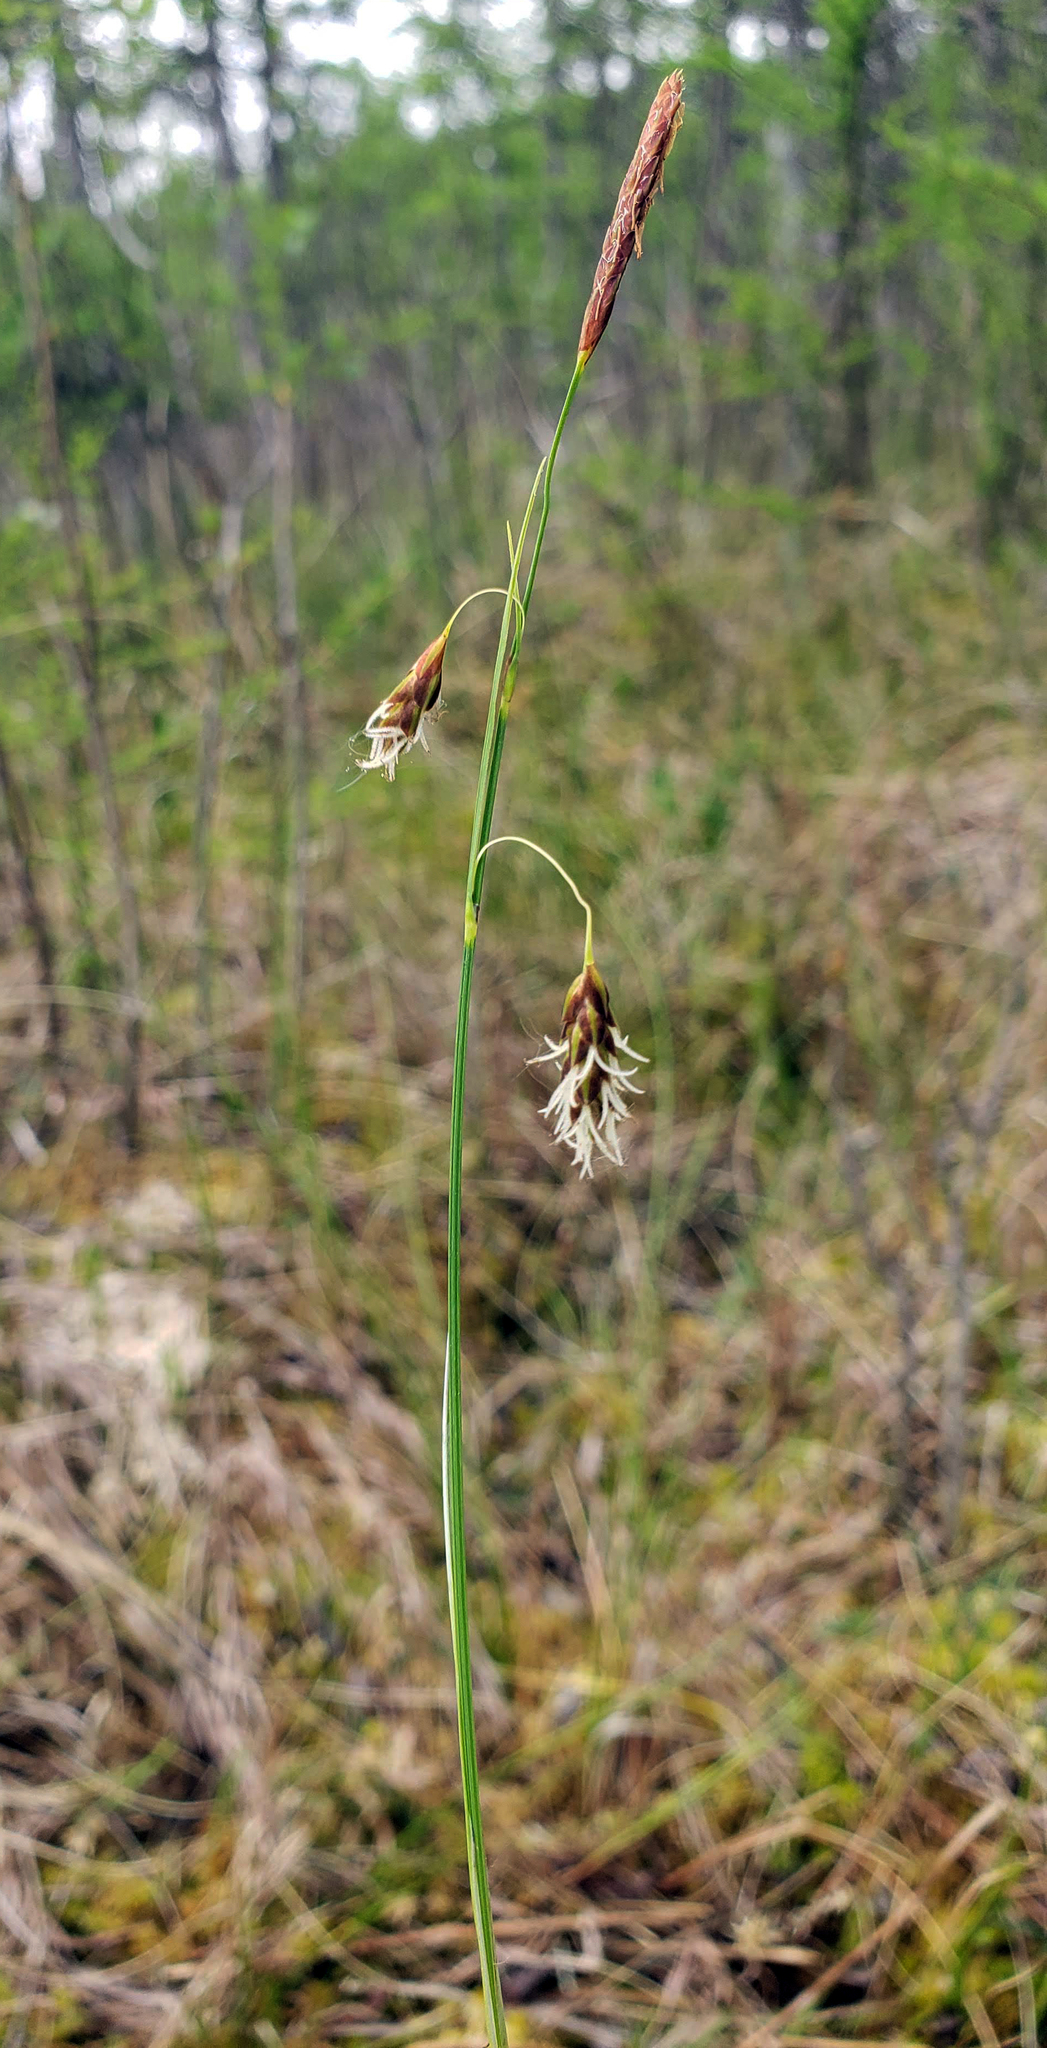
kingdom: Plantae
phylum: Tracheophyta
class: Liliopsida
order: Poales
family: Cyperaceae
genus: Carex
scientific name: Carex limosa
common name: Bog sedge
